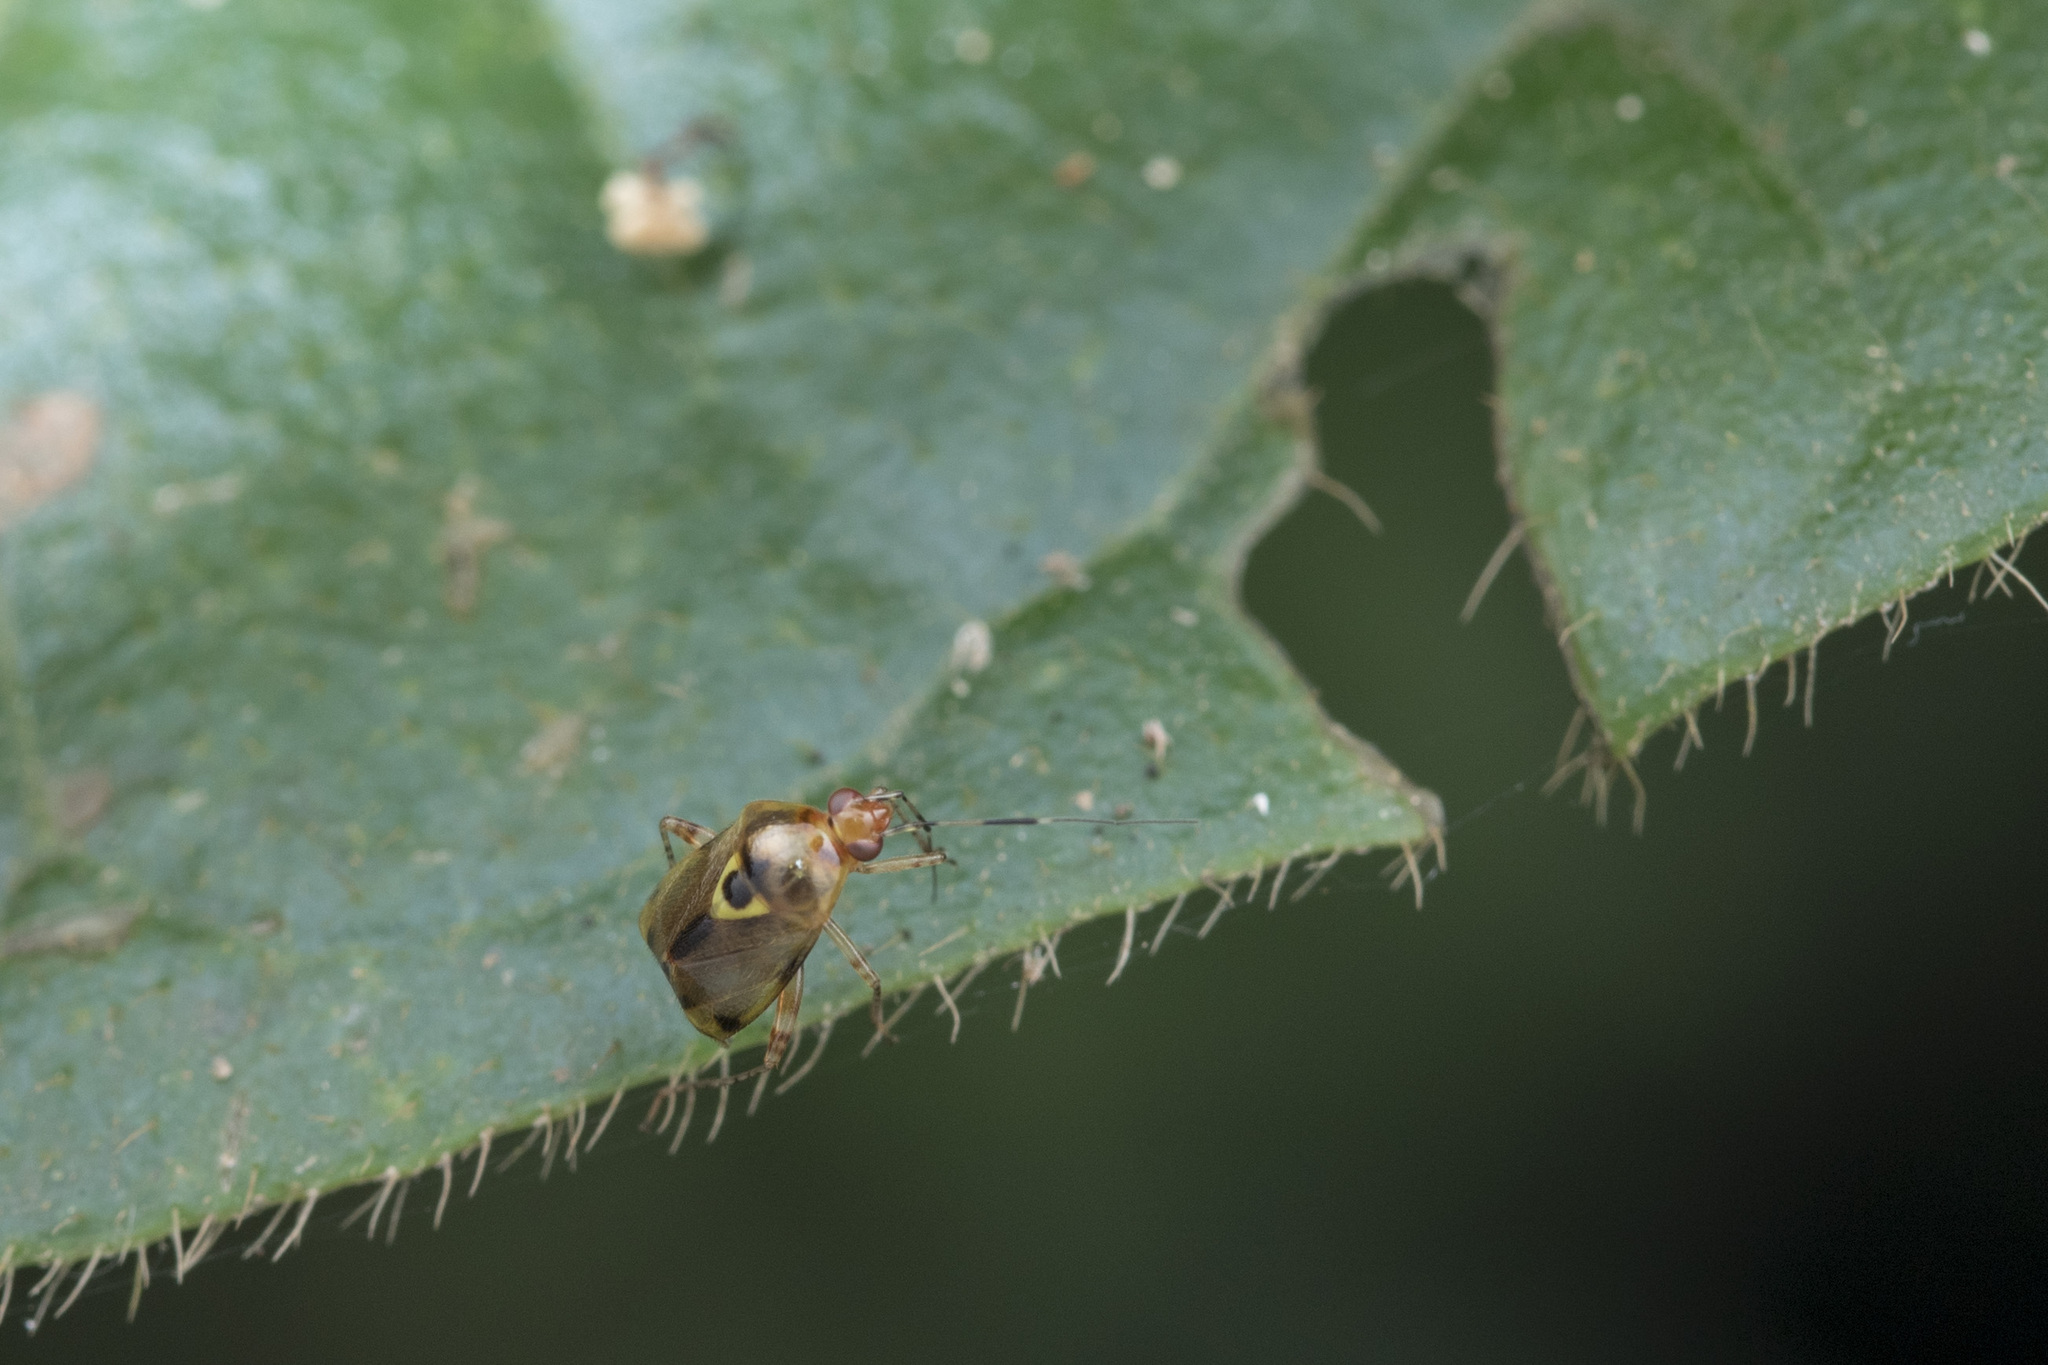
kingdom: Animalia
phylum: Arthropoda
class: Insecta
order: Hemiptera
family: Miridae
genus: Sabactiopus
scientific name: Sabactiopus sauteri
